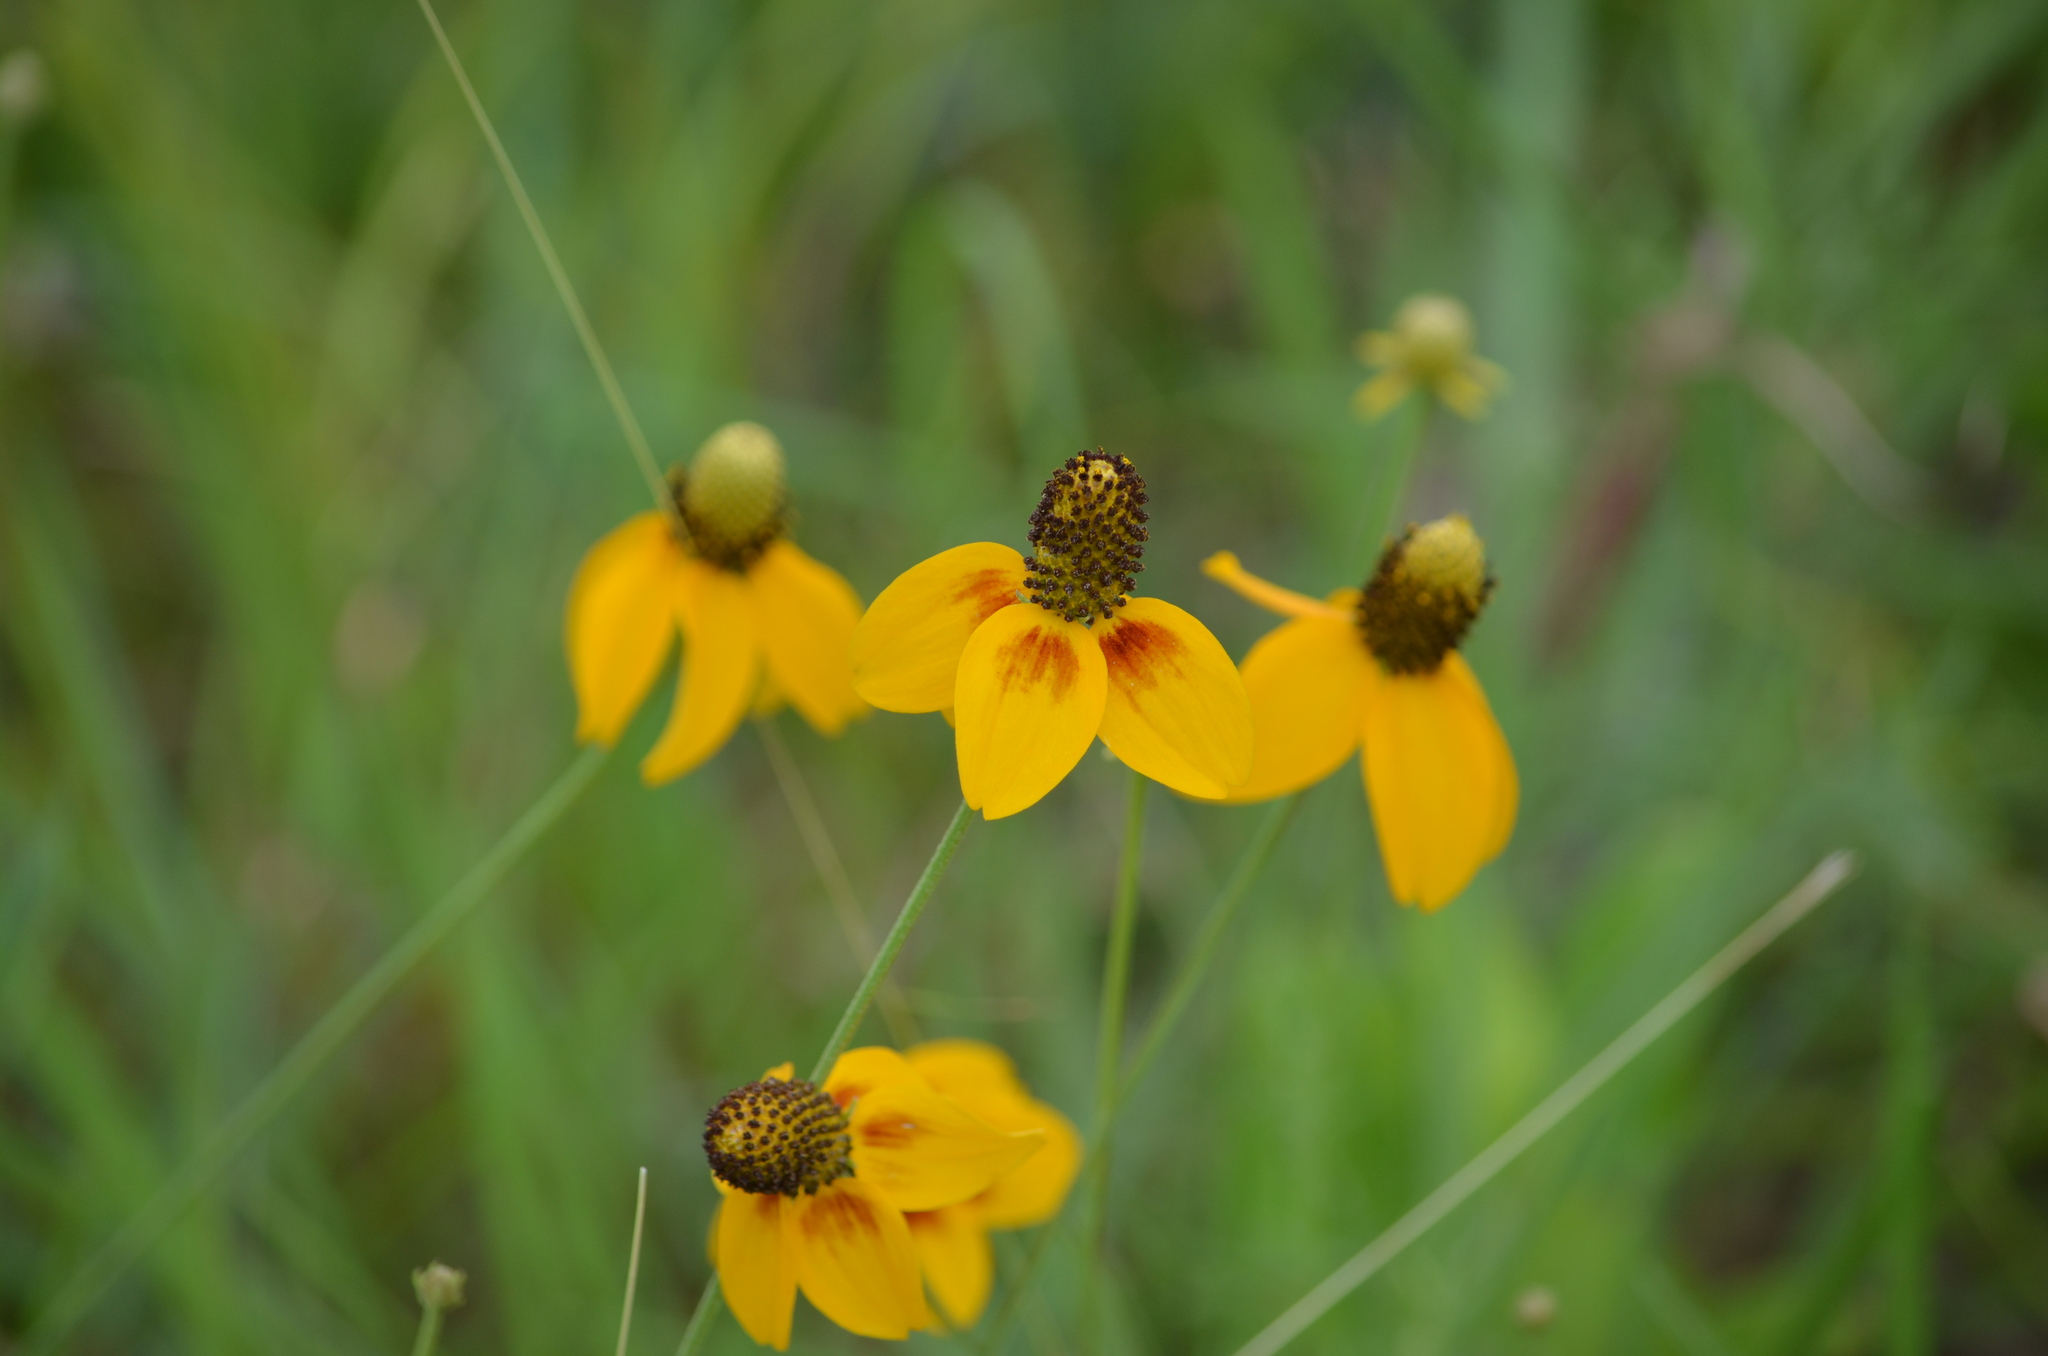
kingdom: Plantae
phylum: Tracheophyta
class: Magnoliopsida
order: Asterales
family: Asteraceae
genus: Ratibida
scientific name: Ratibida columnifera
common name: Prairie coneflower
